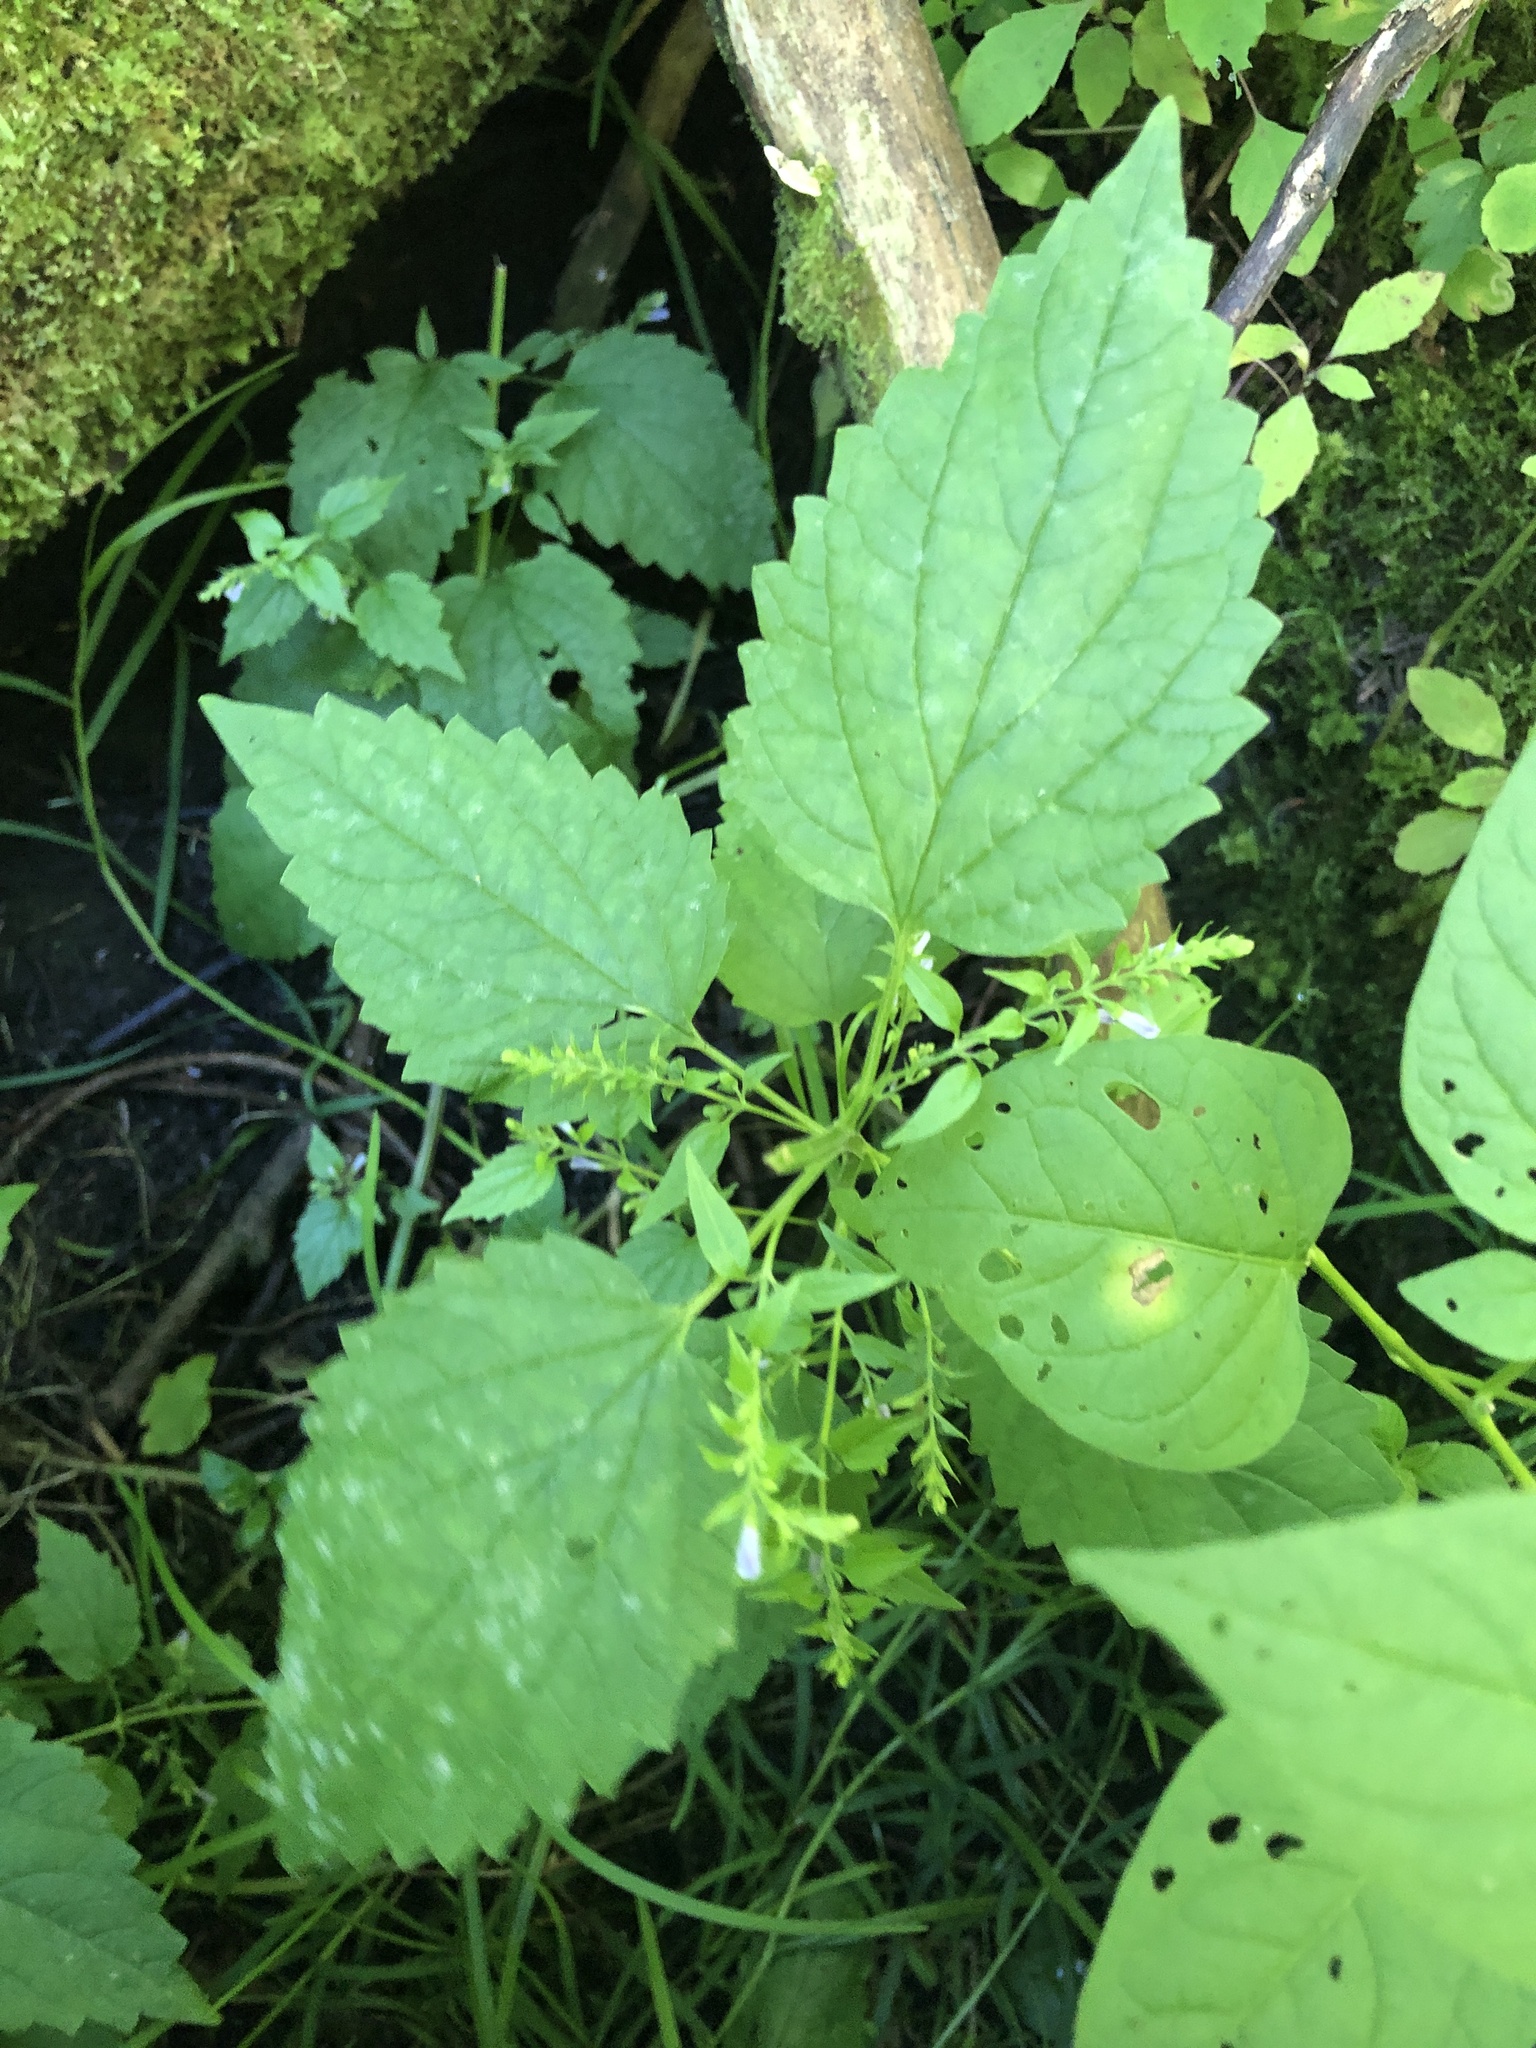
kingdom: Plantae
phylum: Tracheophyta
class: Magnoliopsida
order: Lamiales
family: Lamiaceae
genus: Scutellaria
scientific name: Scutellaria lateriflora
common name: Blue skullcap
